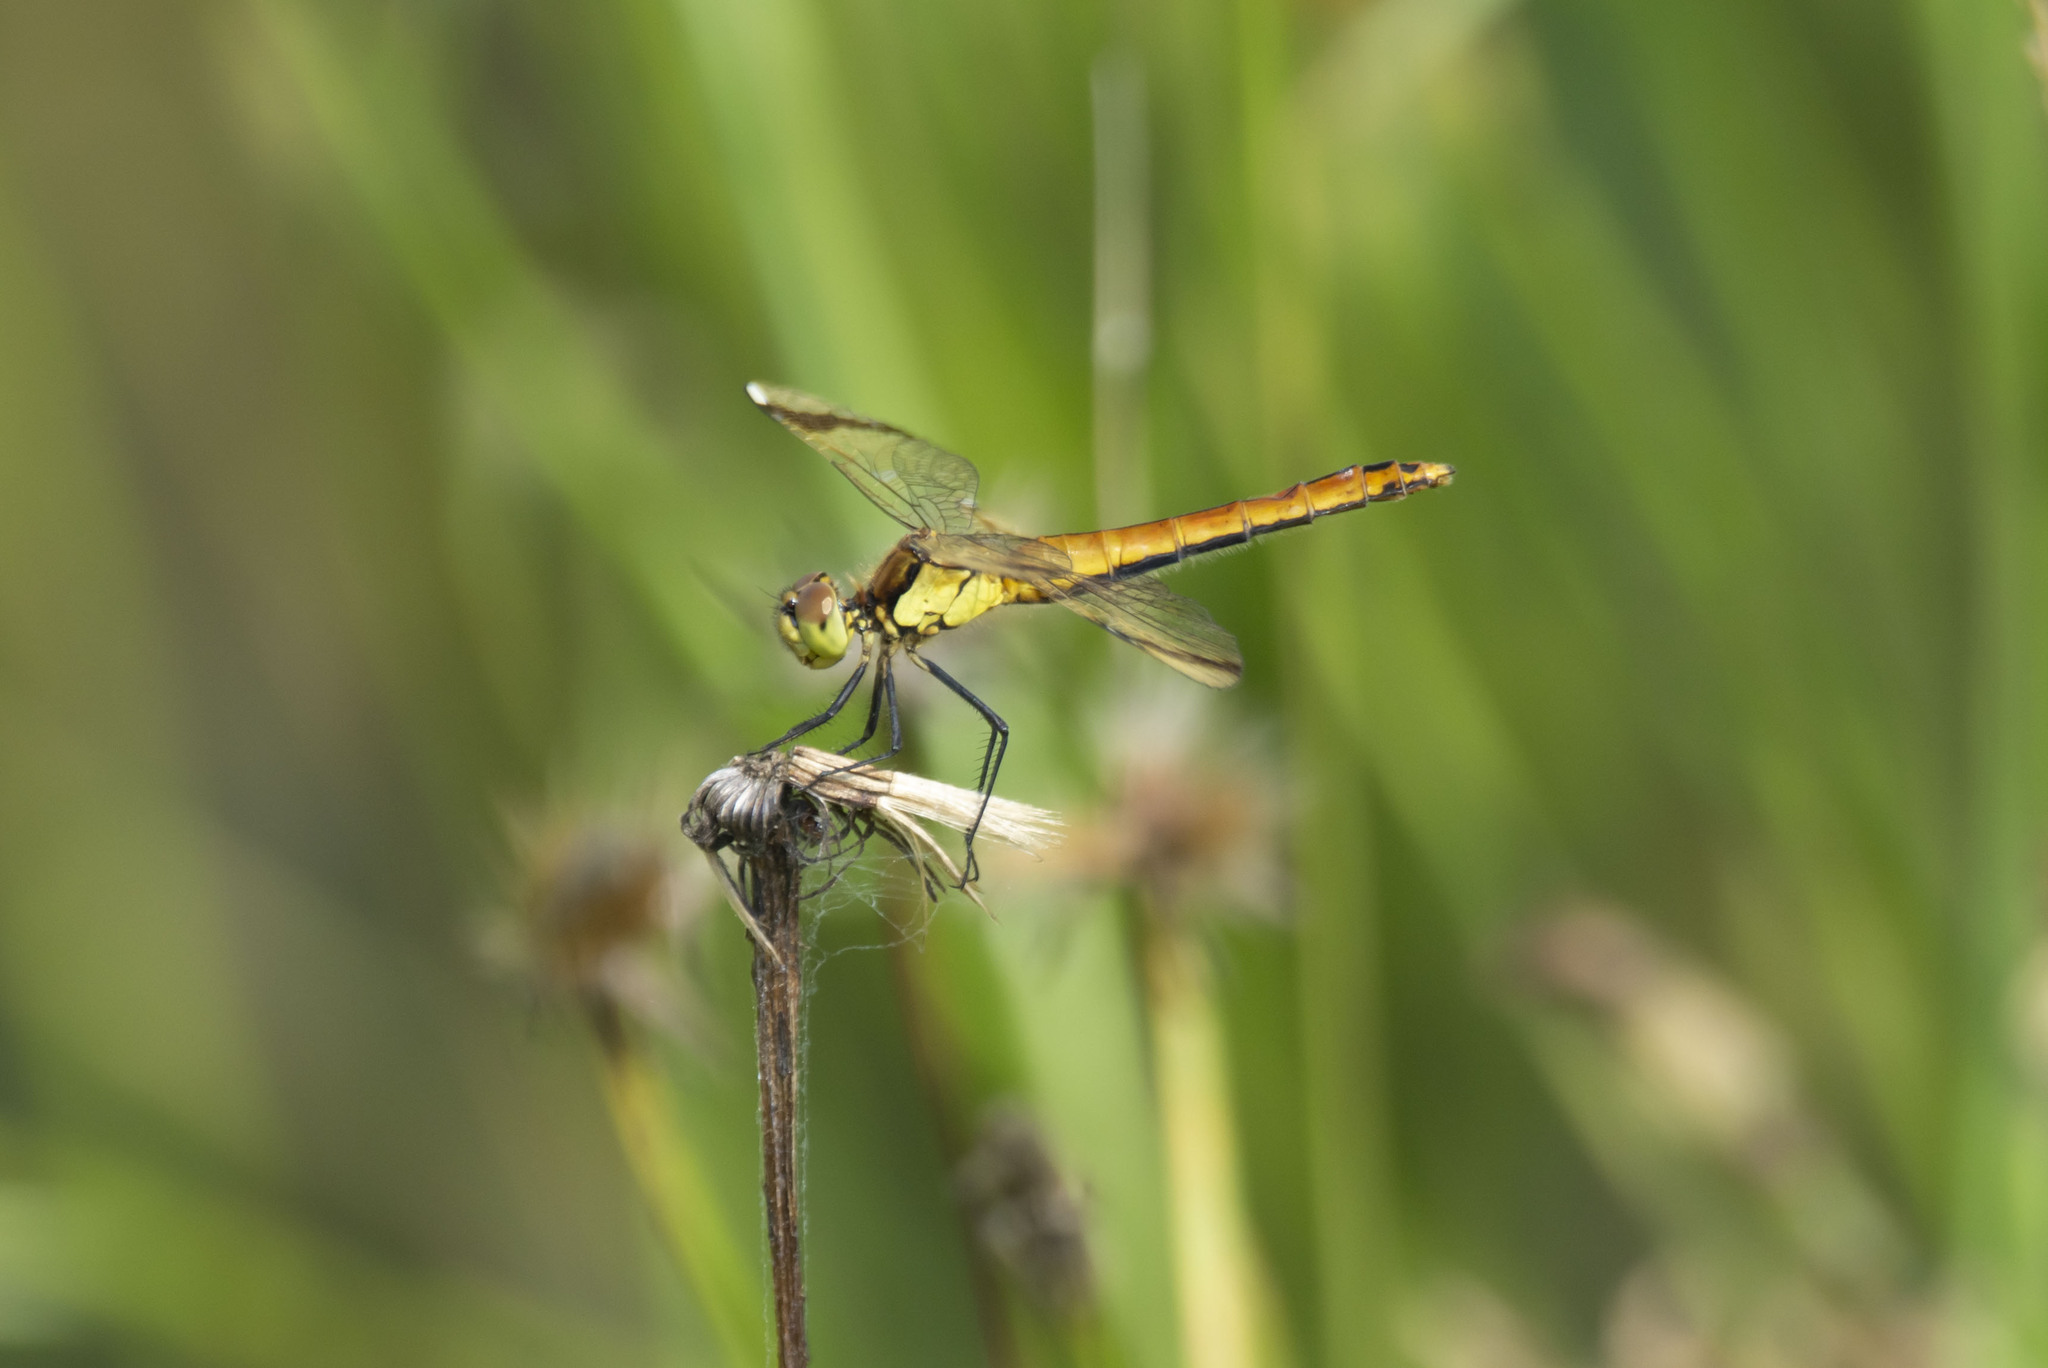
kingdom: Animalia
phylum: Arthropoda
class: Insecta
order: Odonata
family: Libellulidae
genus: Sympetrum
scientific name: Sympetrum pedemontanum
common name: Banded darter
